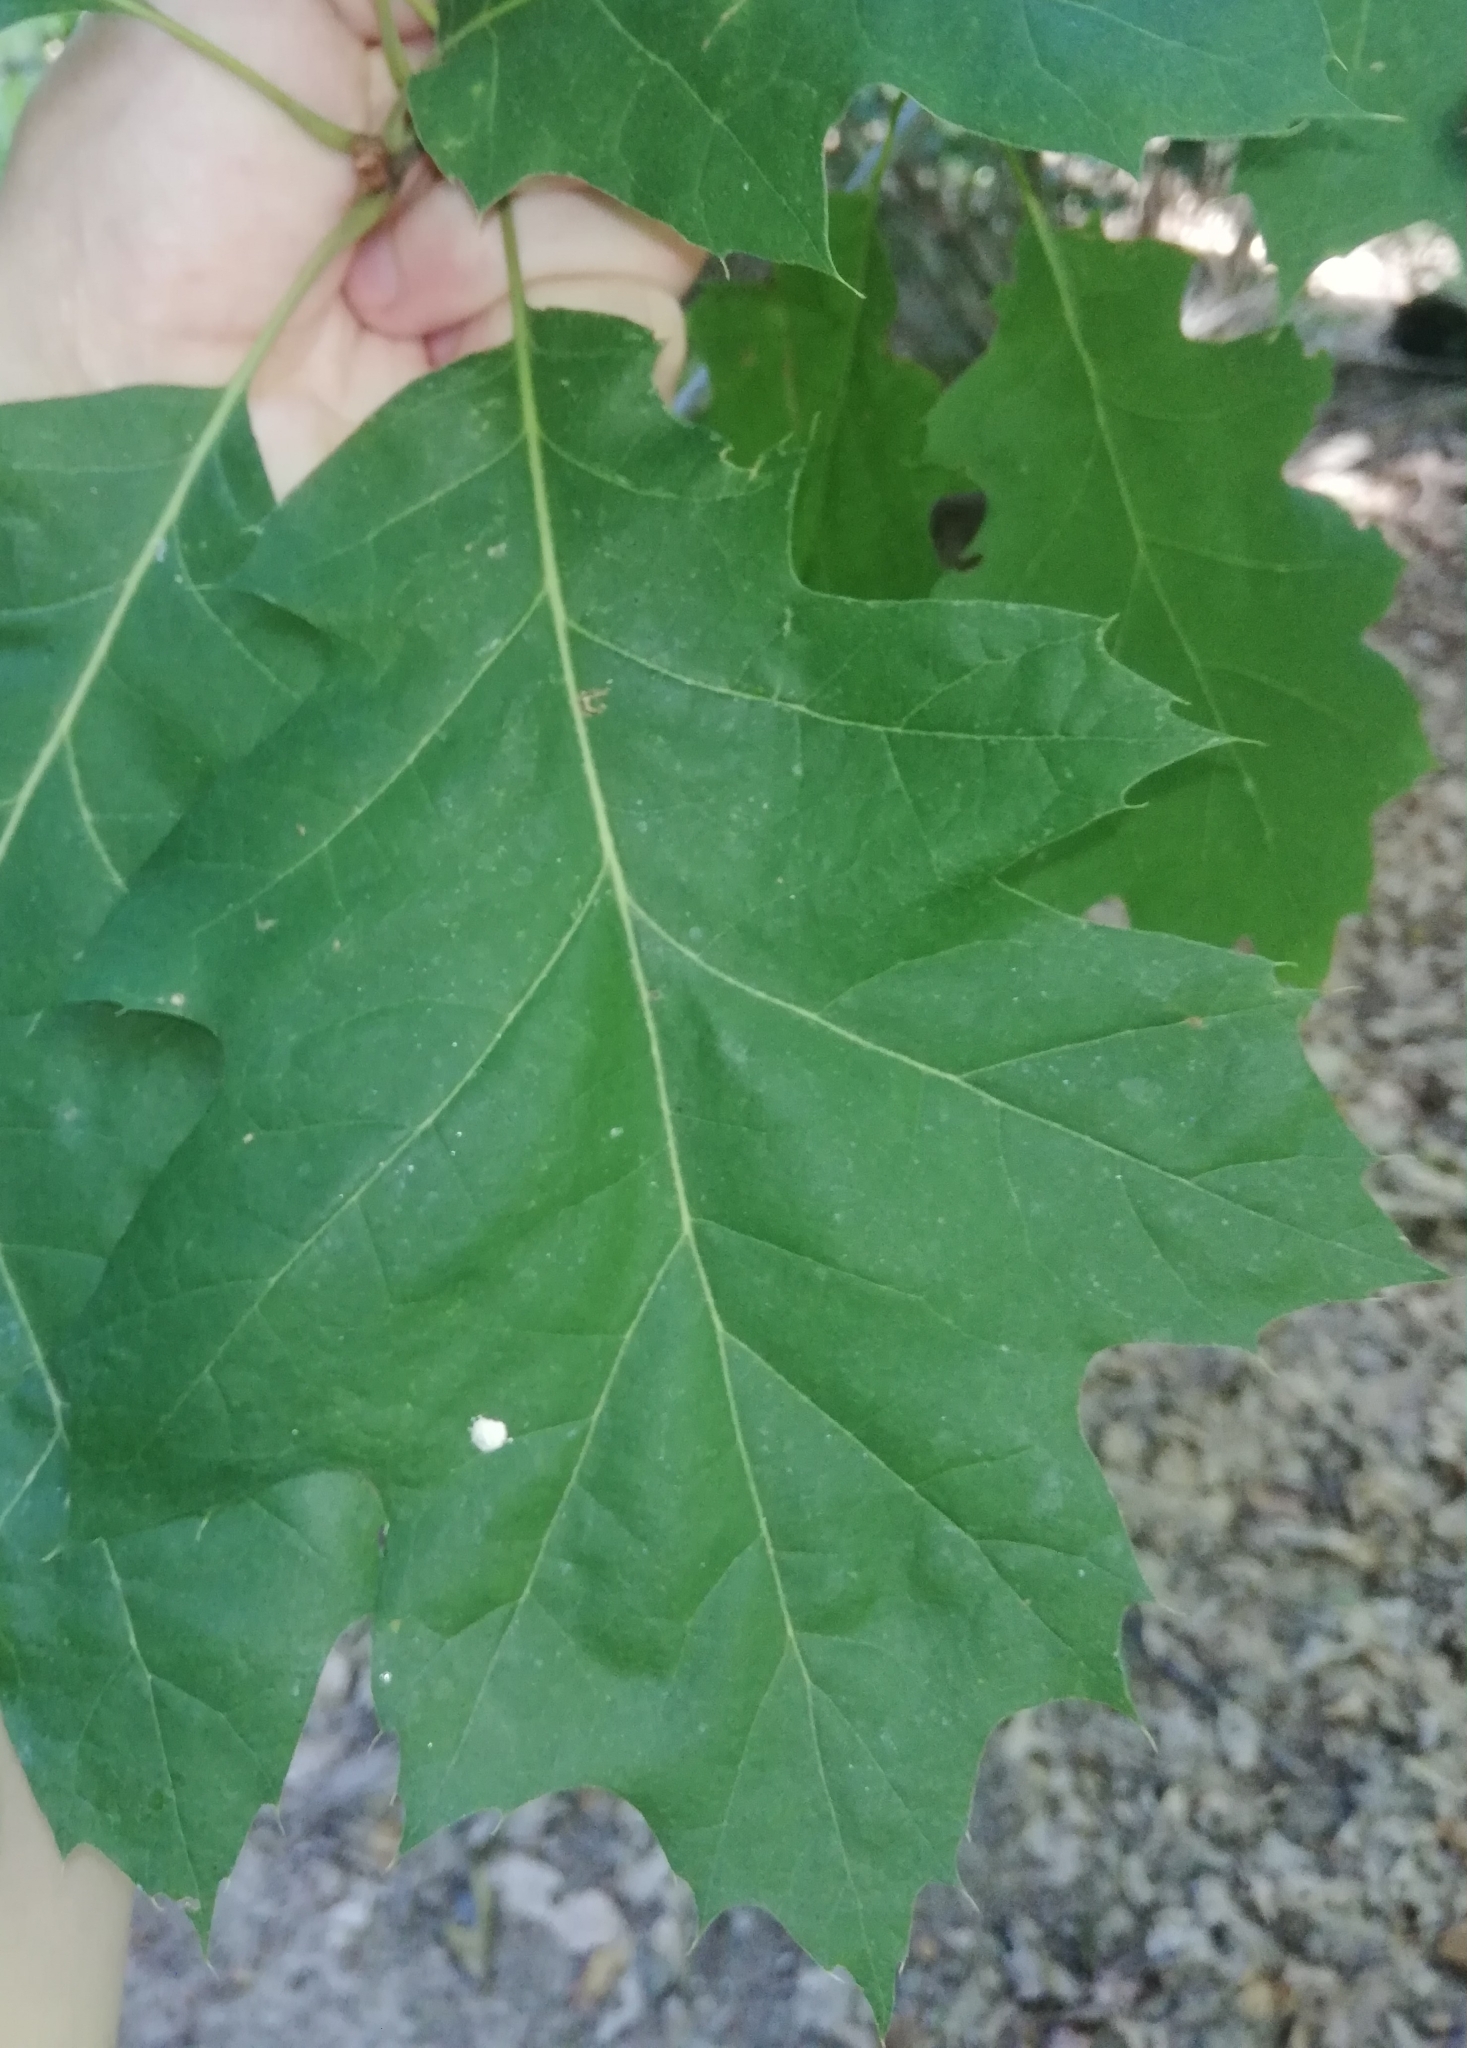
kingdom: Plantae
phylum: Tracheophyta
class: Magnoliopsida
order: Fagales
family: Fagaceae
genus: Quercus
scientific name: Quercus rubra
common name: Red oak
